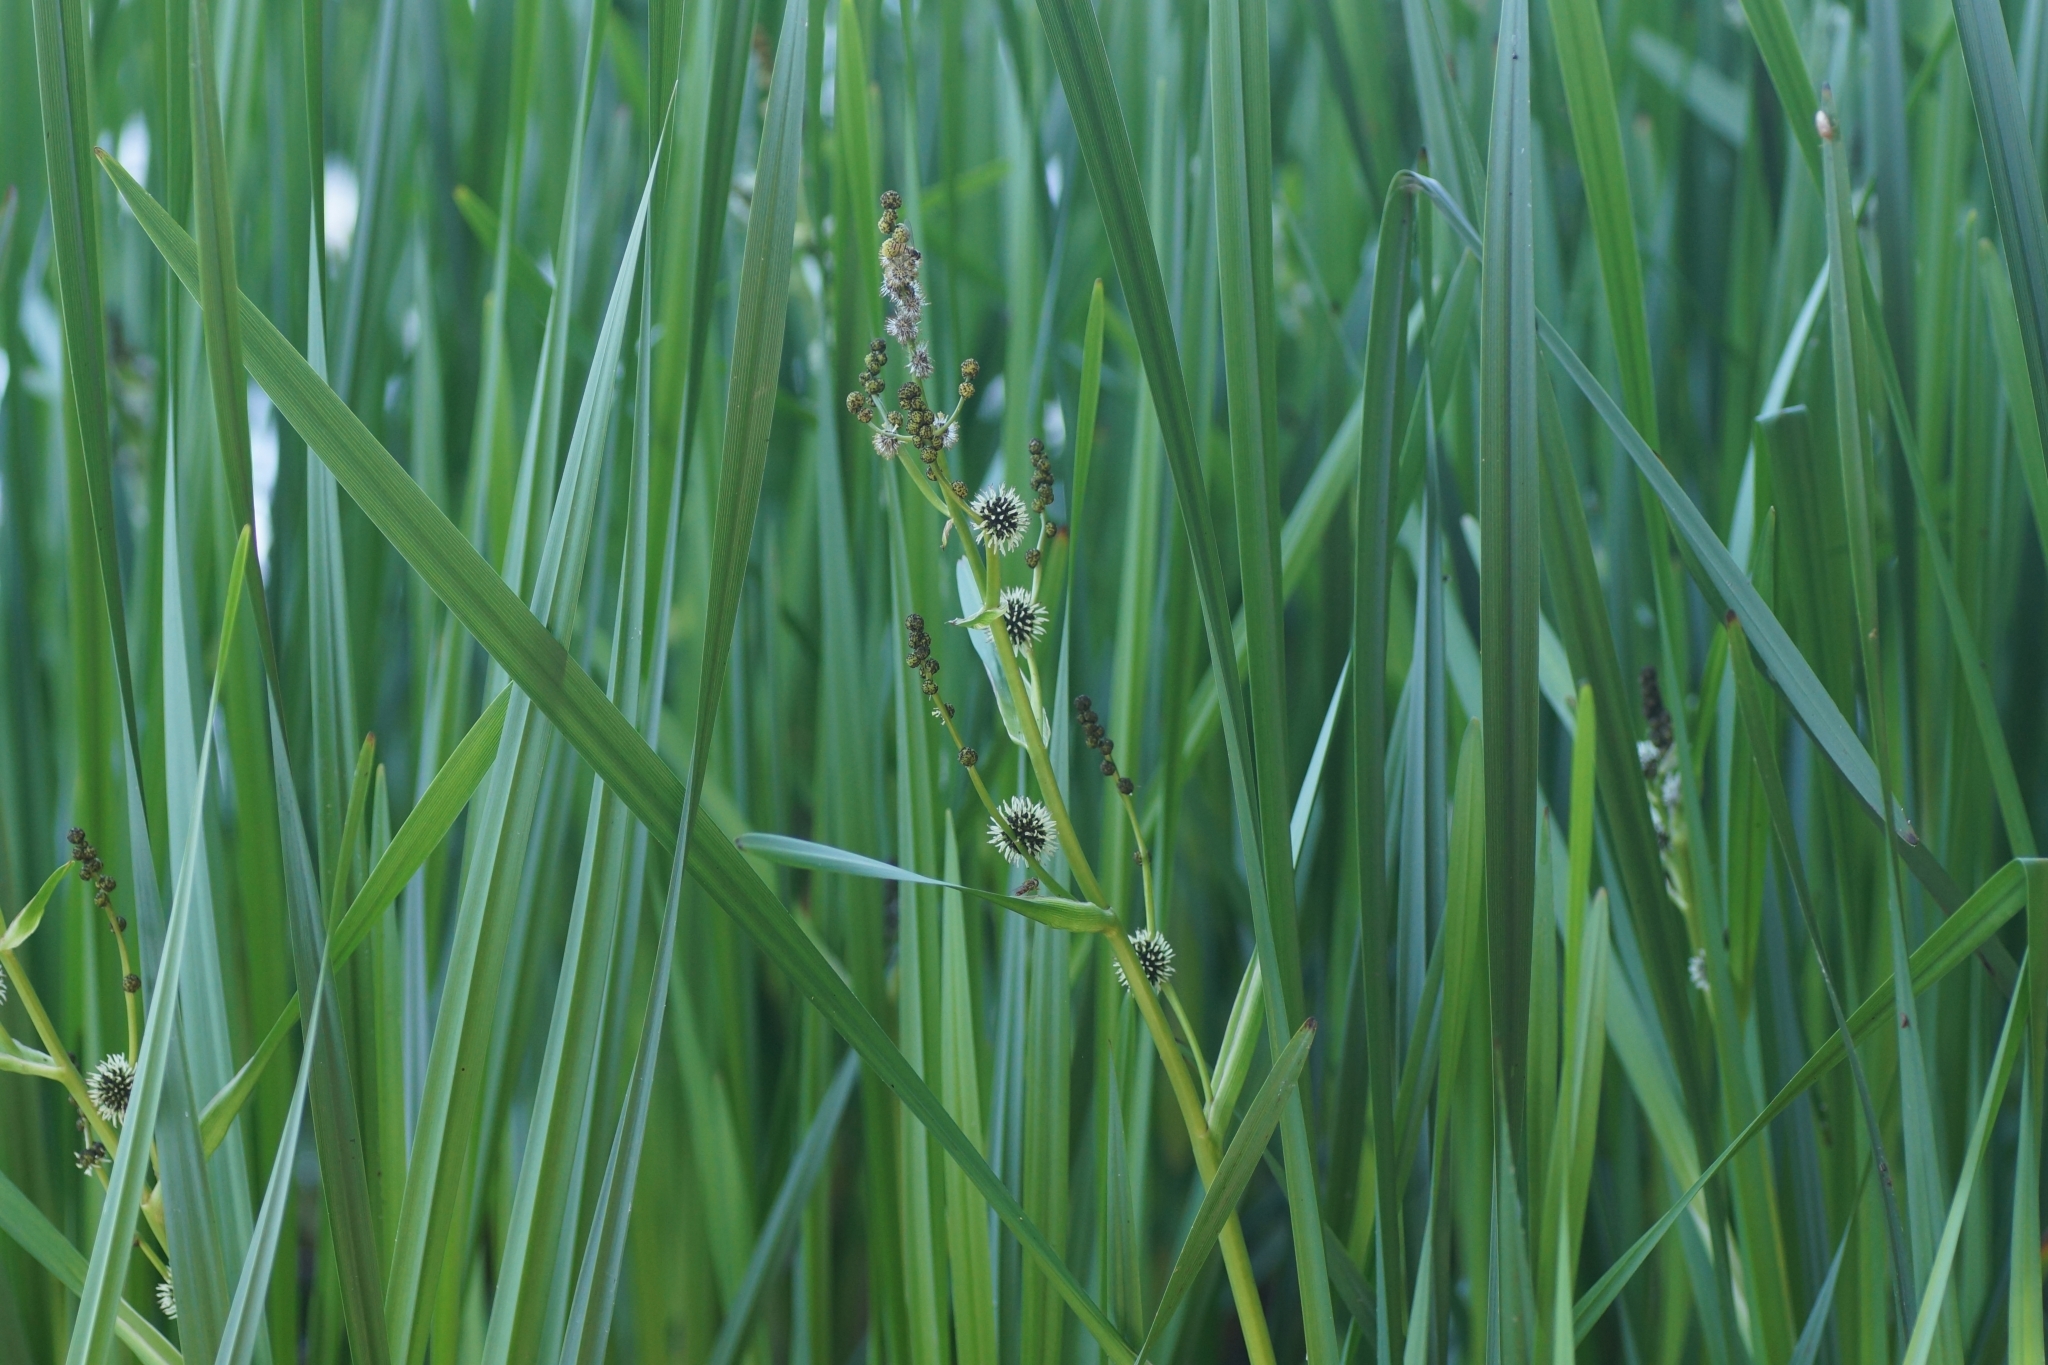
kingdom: Plantae
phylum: Tracheophyta
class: Liliopsida
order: Poales
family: Typhaceae
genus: Sparganium
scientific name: Sparganium erectum
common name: Branched bur-reed
